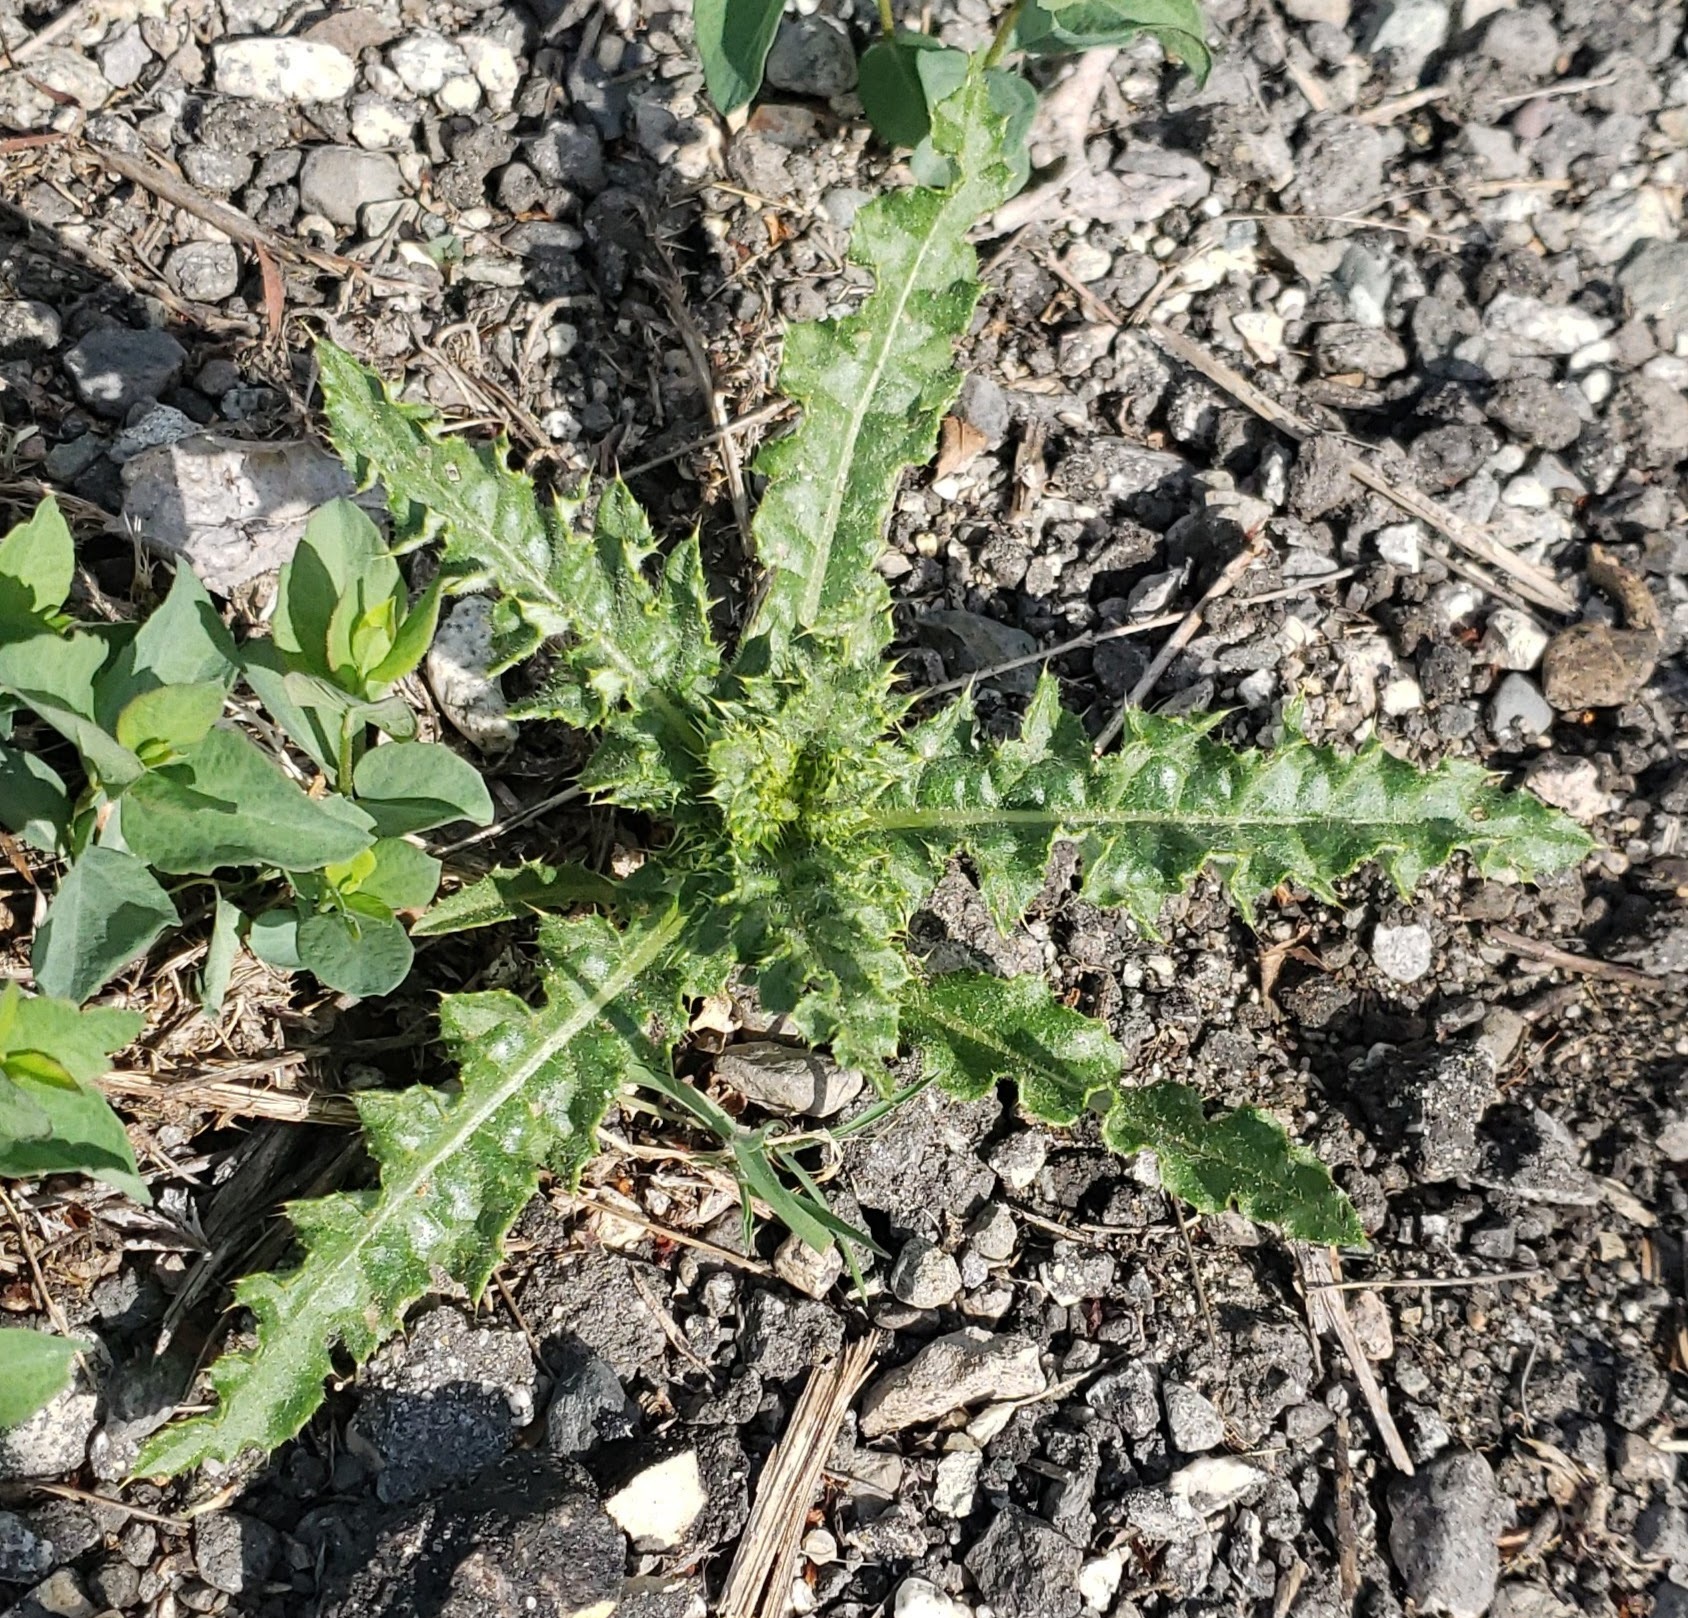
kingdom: Plantae
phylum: Tracheophyta
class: Magnoliopsida
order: Asterales
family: Asteraceae
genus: Cirsium
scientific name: Cirsium arvense
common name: Creeping thistle
